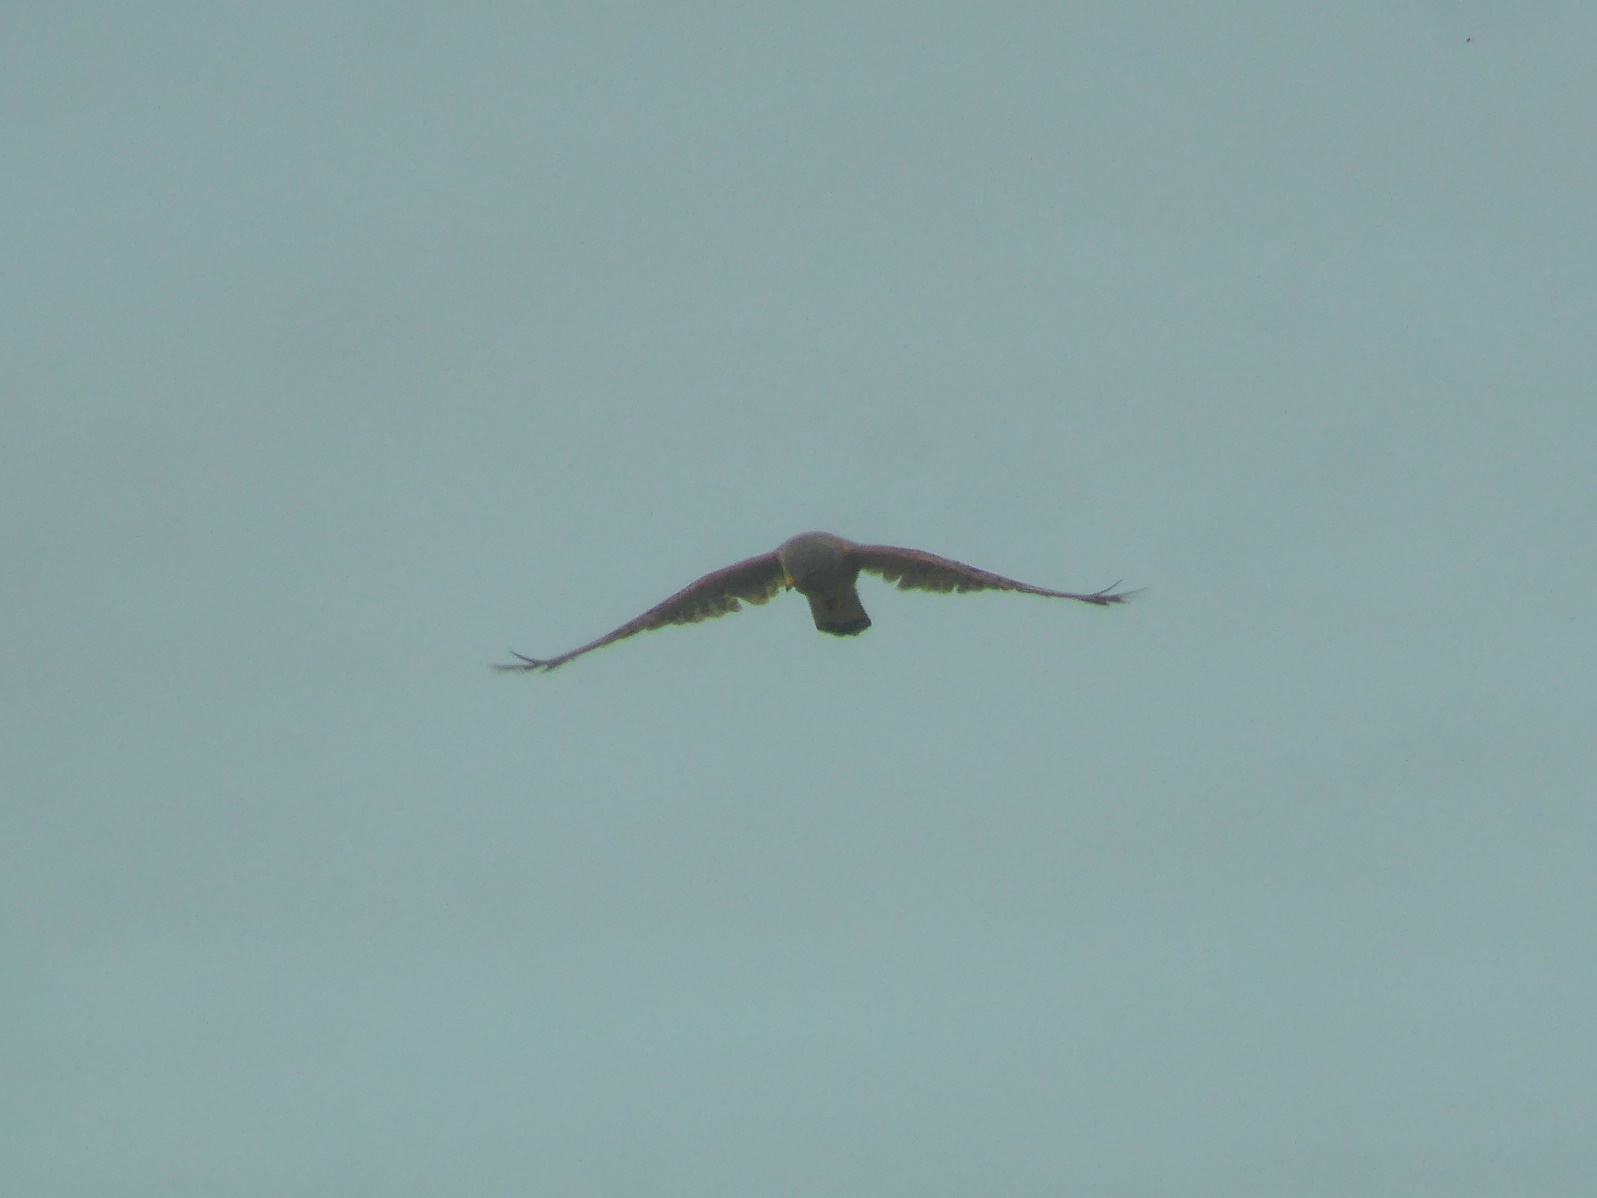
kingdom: Animalia
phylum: Chordata
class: Aves
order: Falconiformes
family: Falconidae
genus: Falco
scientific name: Falco tinnunculus
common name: Common kestrel
